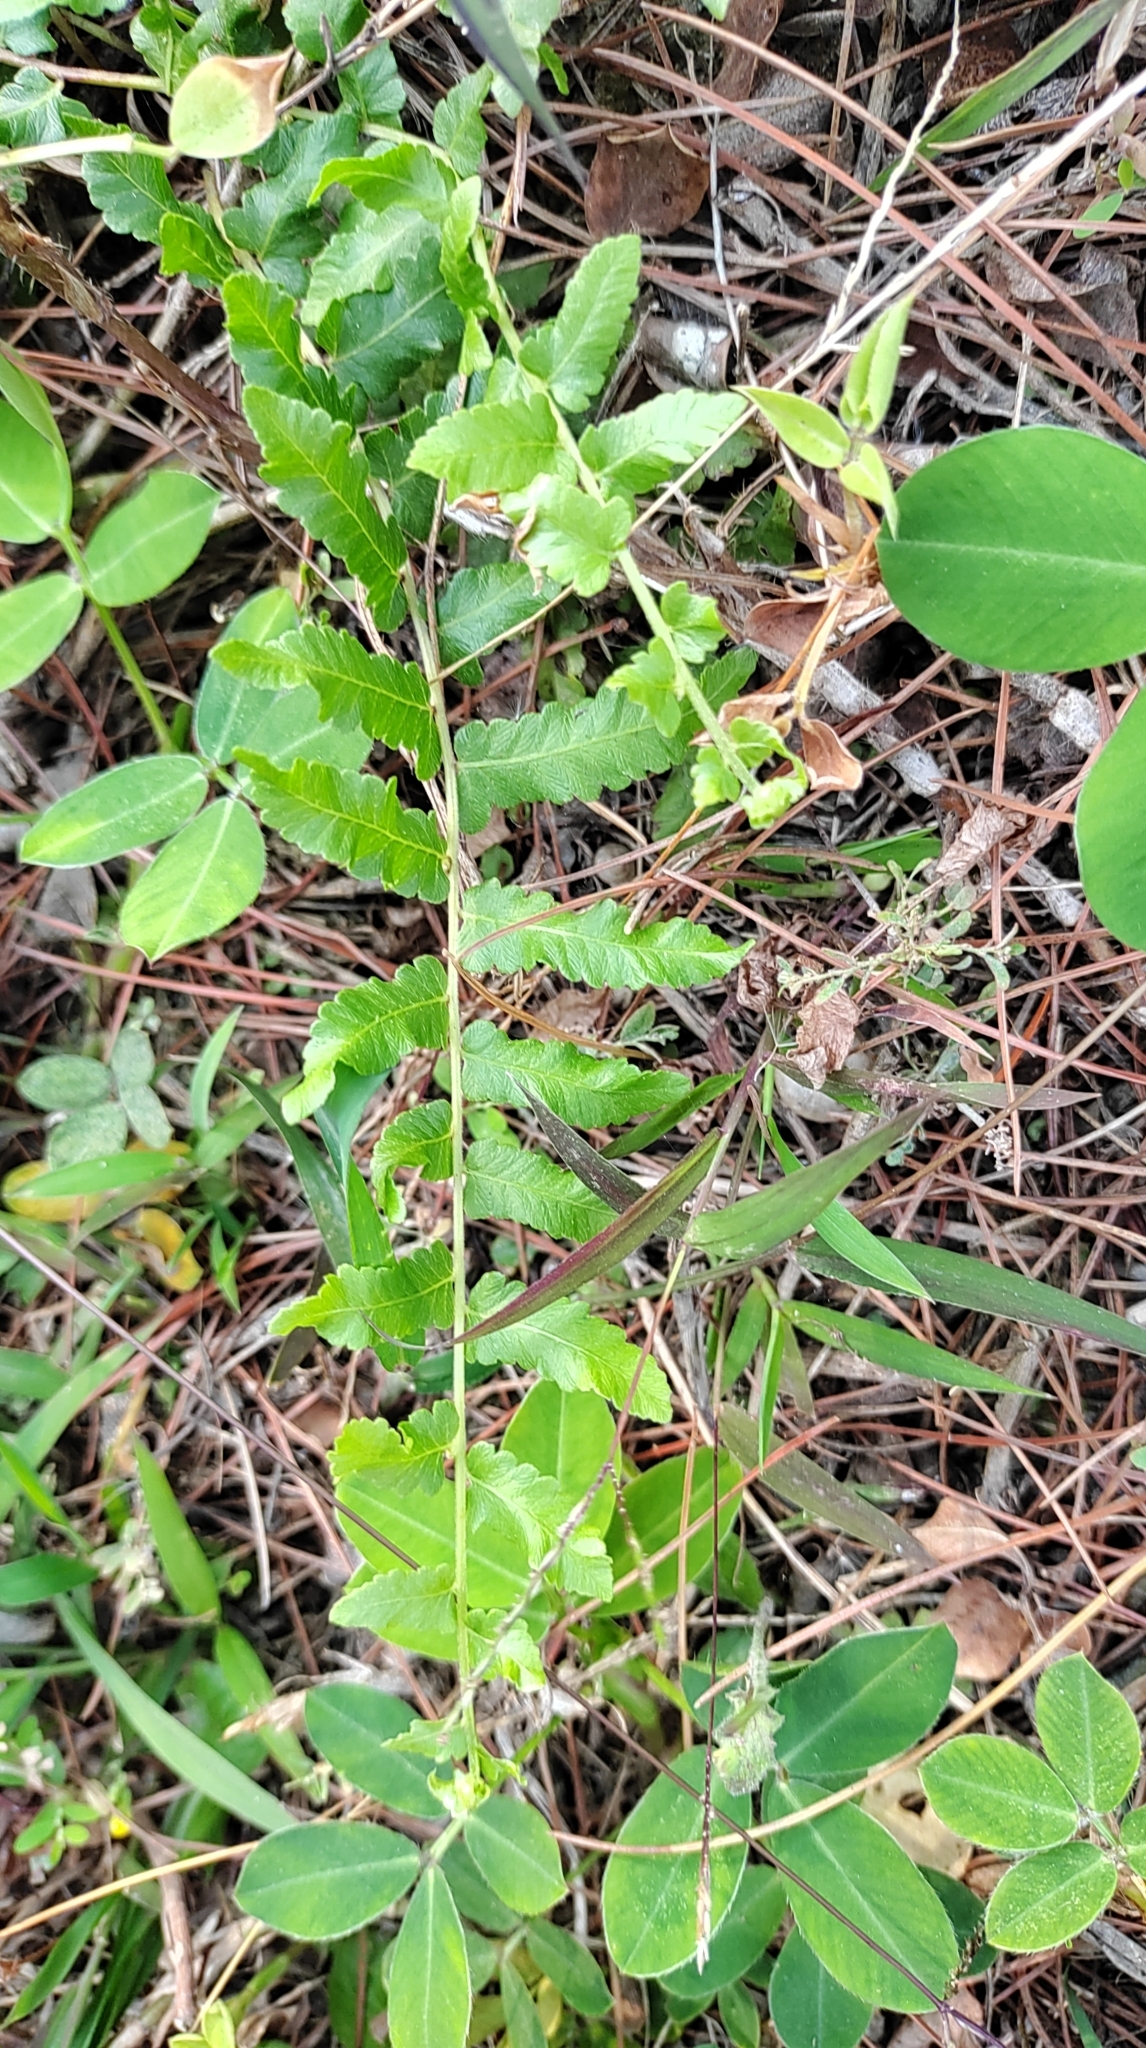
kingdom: Plantae
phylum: Tracheophyta
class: Polypodiopsida
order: Polypodiales
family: Thelypteridaceae
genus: Ampelopteris
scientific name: Ampelopteris prolifera
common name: Riverine scrambler
